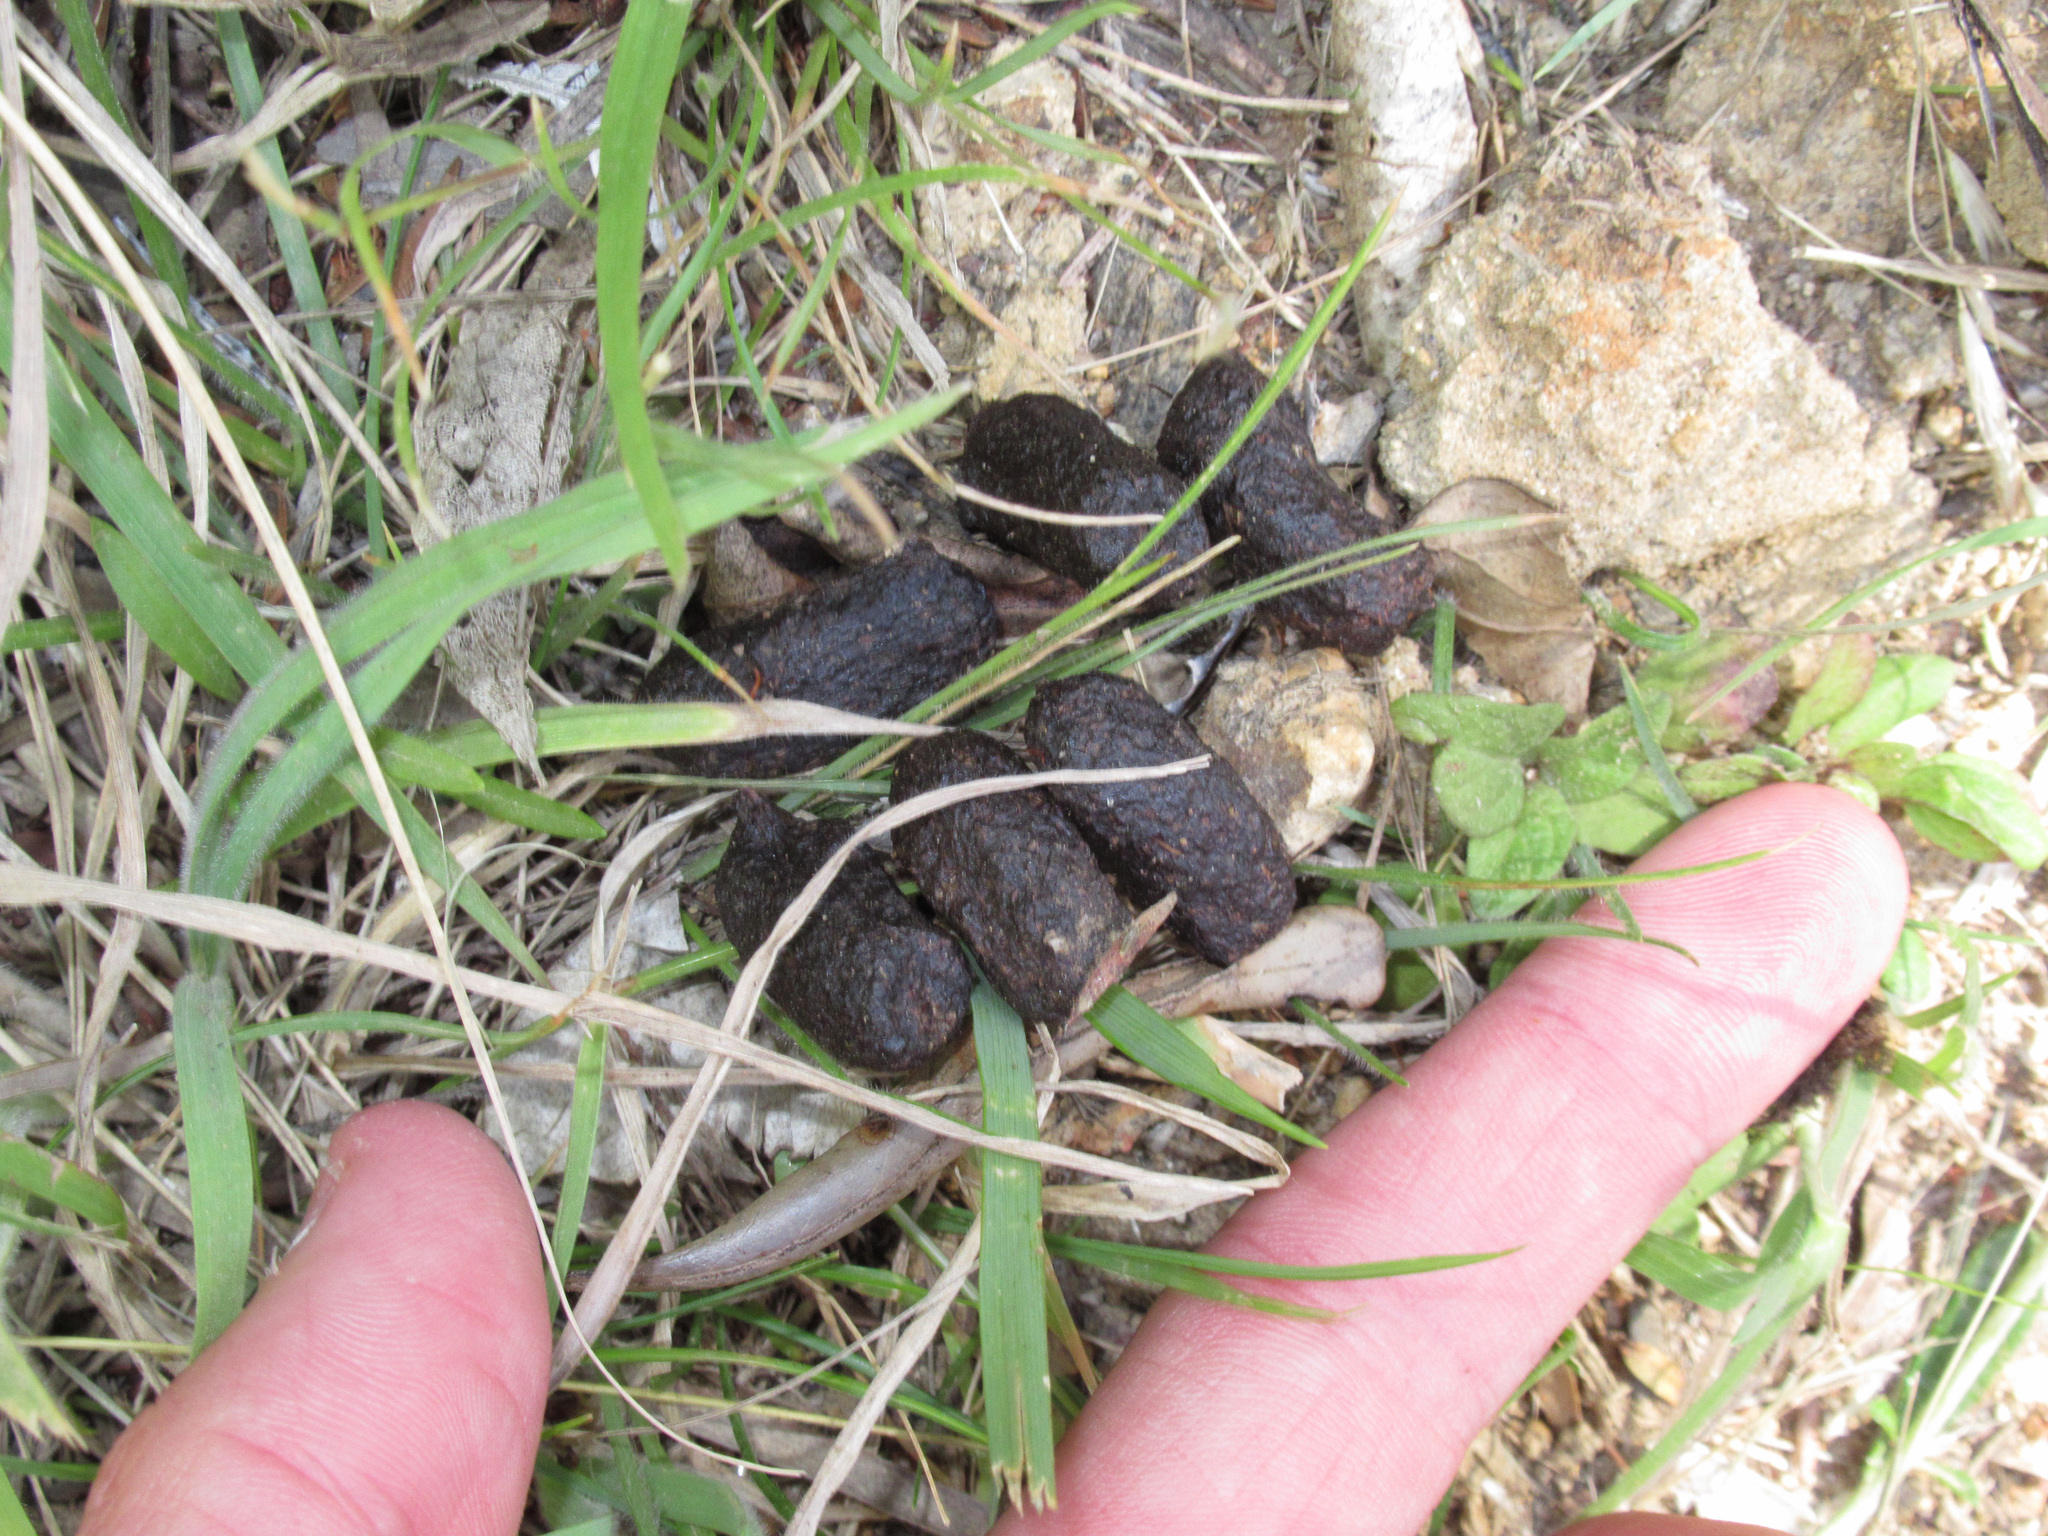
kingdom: Animalia
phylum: Chordata
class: Mammalia
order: Diprotodontia
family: Phalangeridae
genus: Trichosurus
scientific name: Trichosurus vulpecula
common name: Common brushtail
